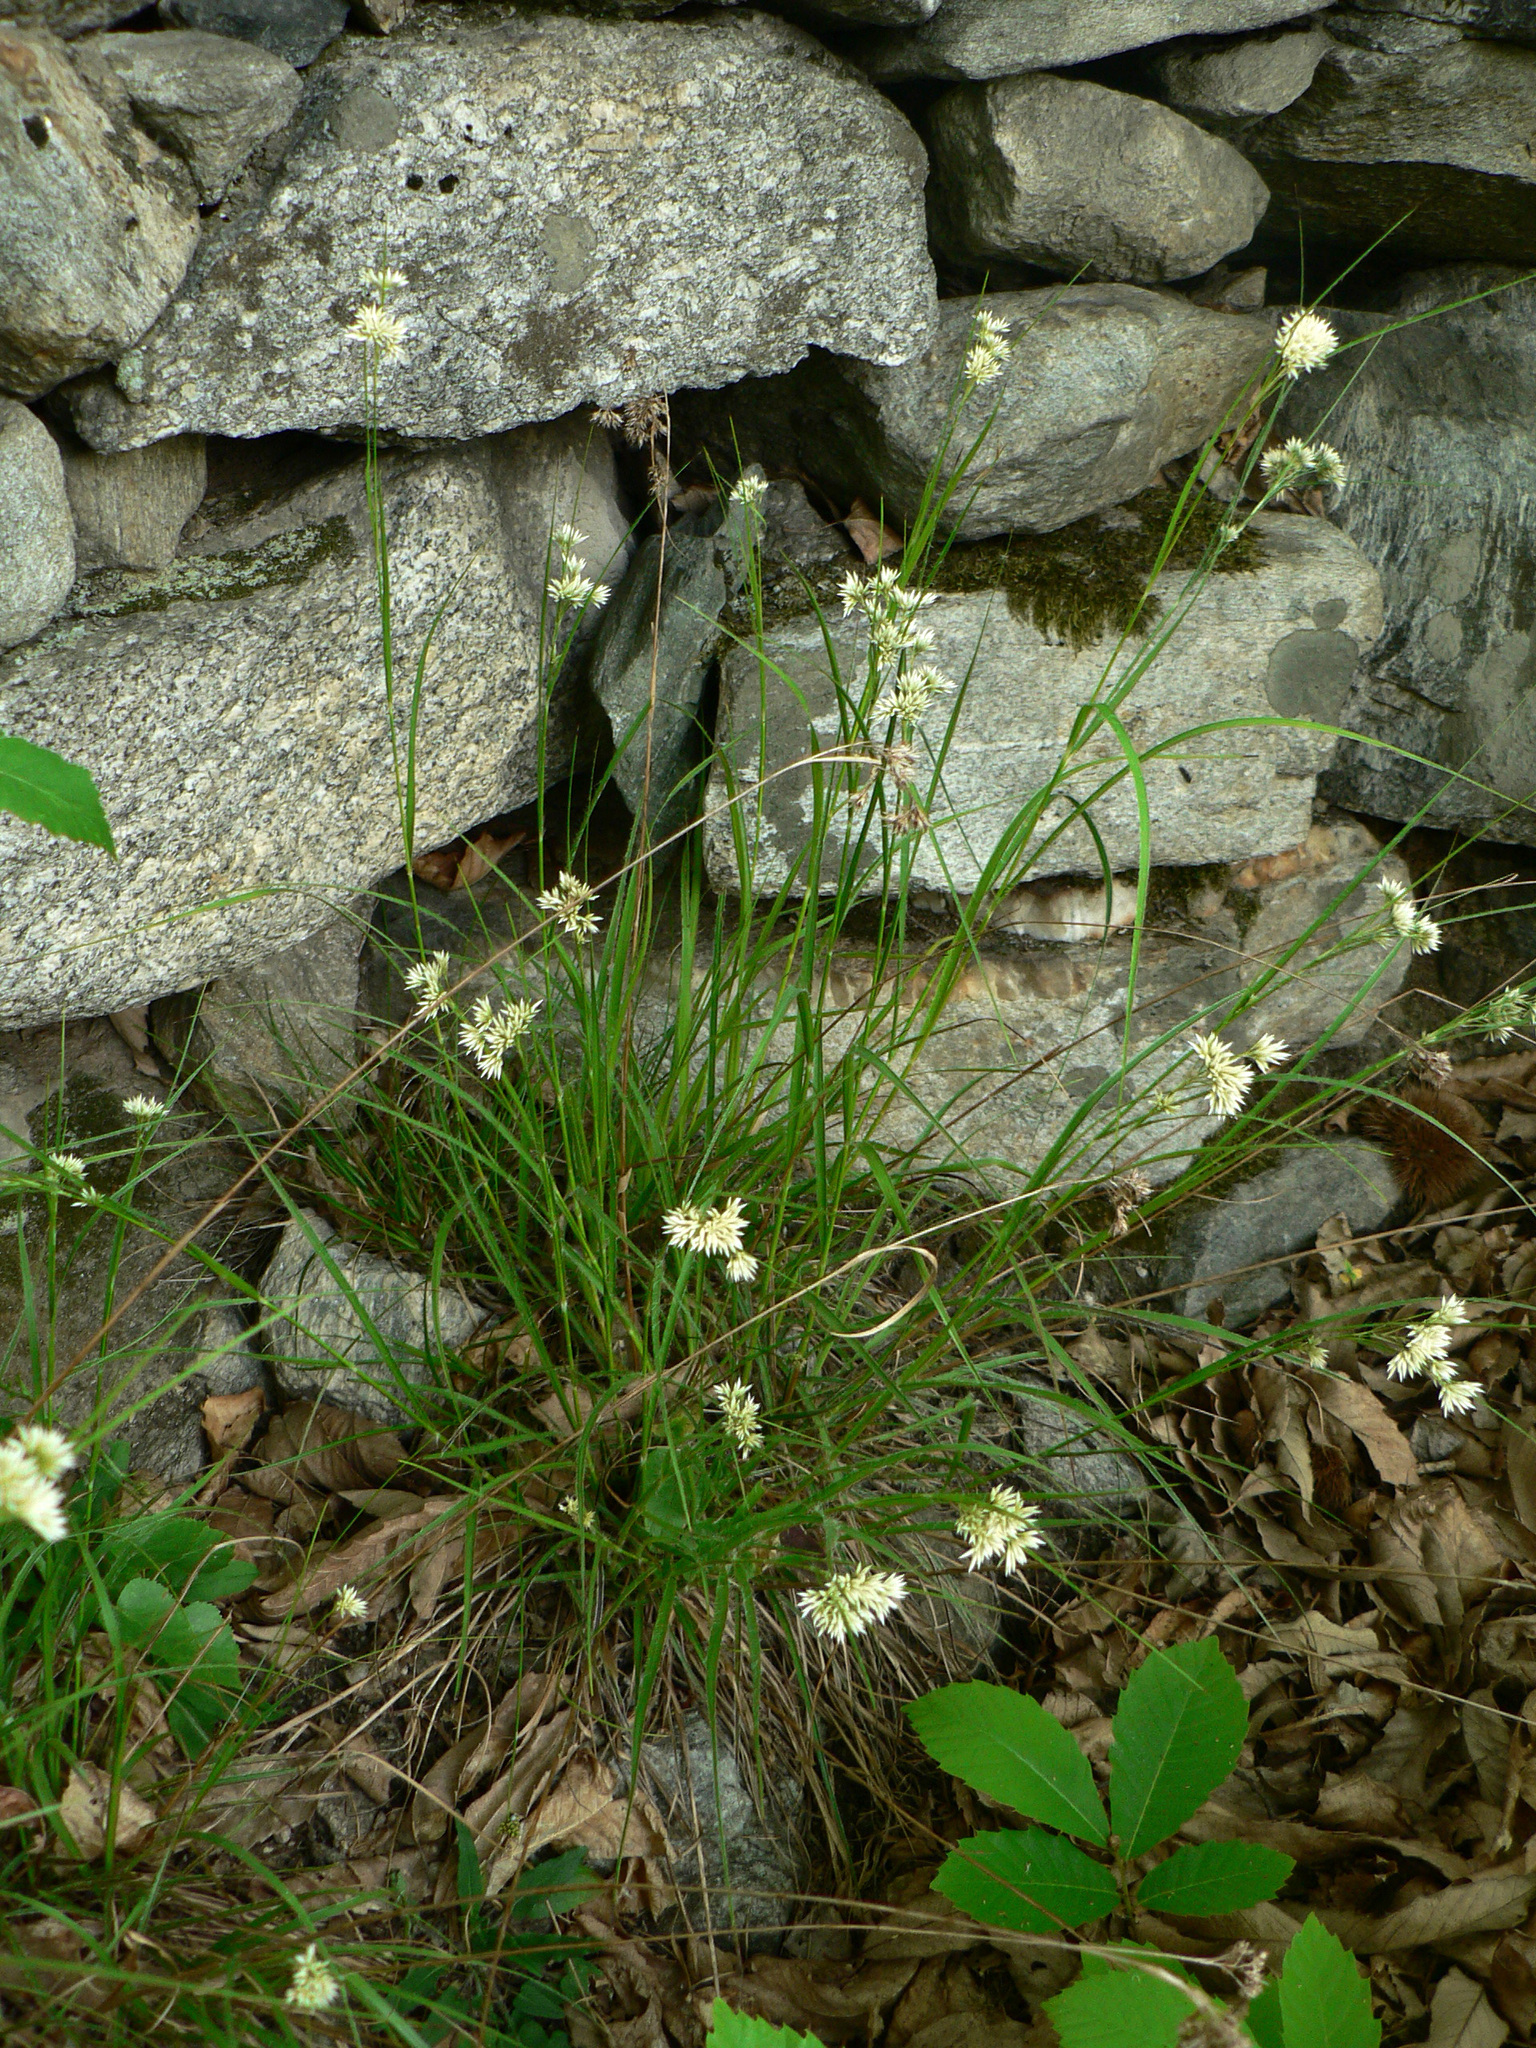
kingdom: Plantae
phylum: Tracheophyta
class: Liliopsida
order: Poales
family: Juncaceae
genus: Luzula
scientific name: Luzula nivea
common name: Snow-white wood-rush
